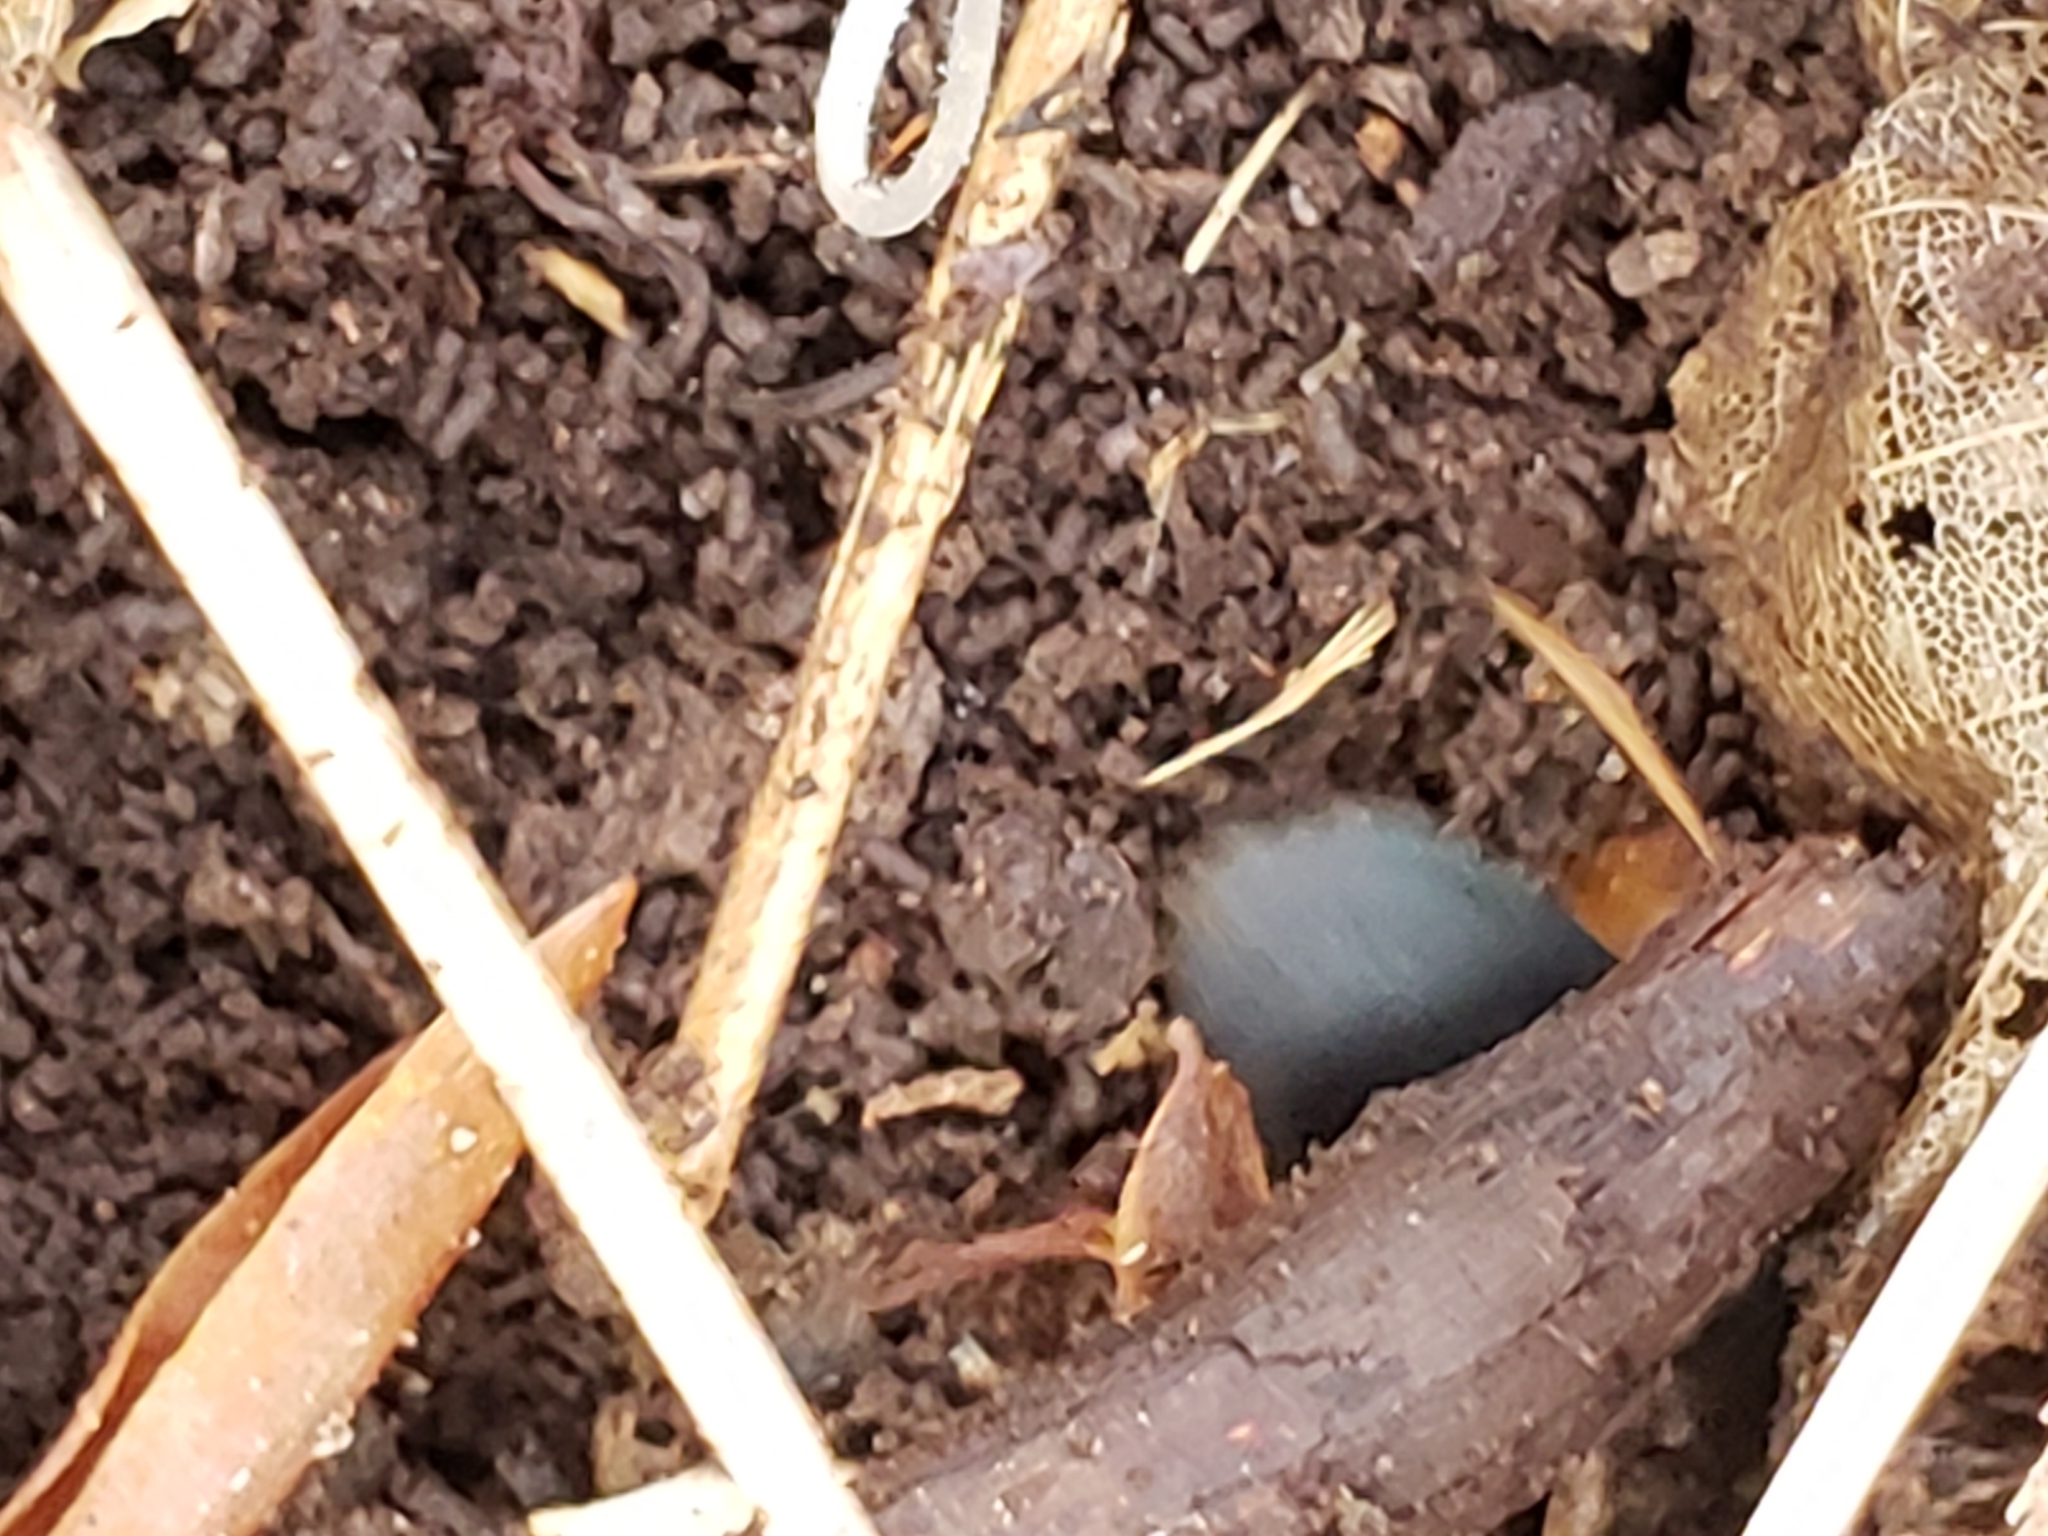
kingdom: Animalia
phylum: Arthropoda
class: Insecta
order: Coleoptera
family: Carabidae
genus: Chlaenius
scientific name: Chlaenius aestivus
